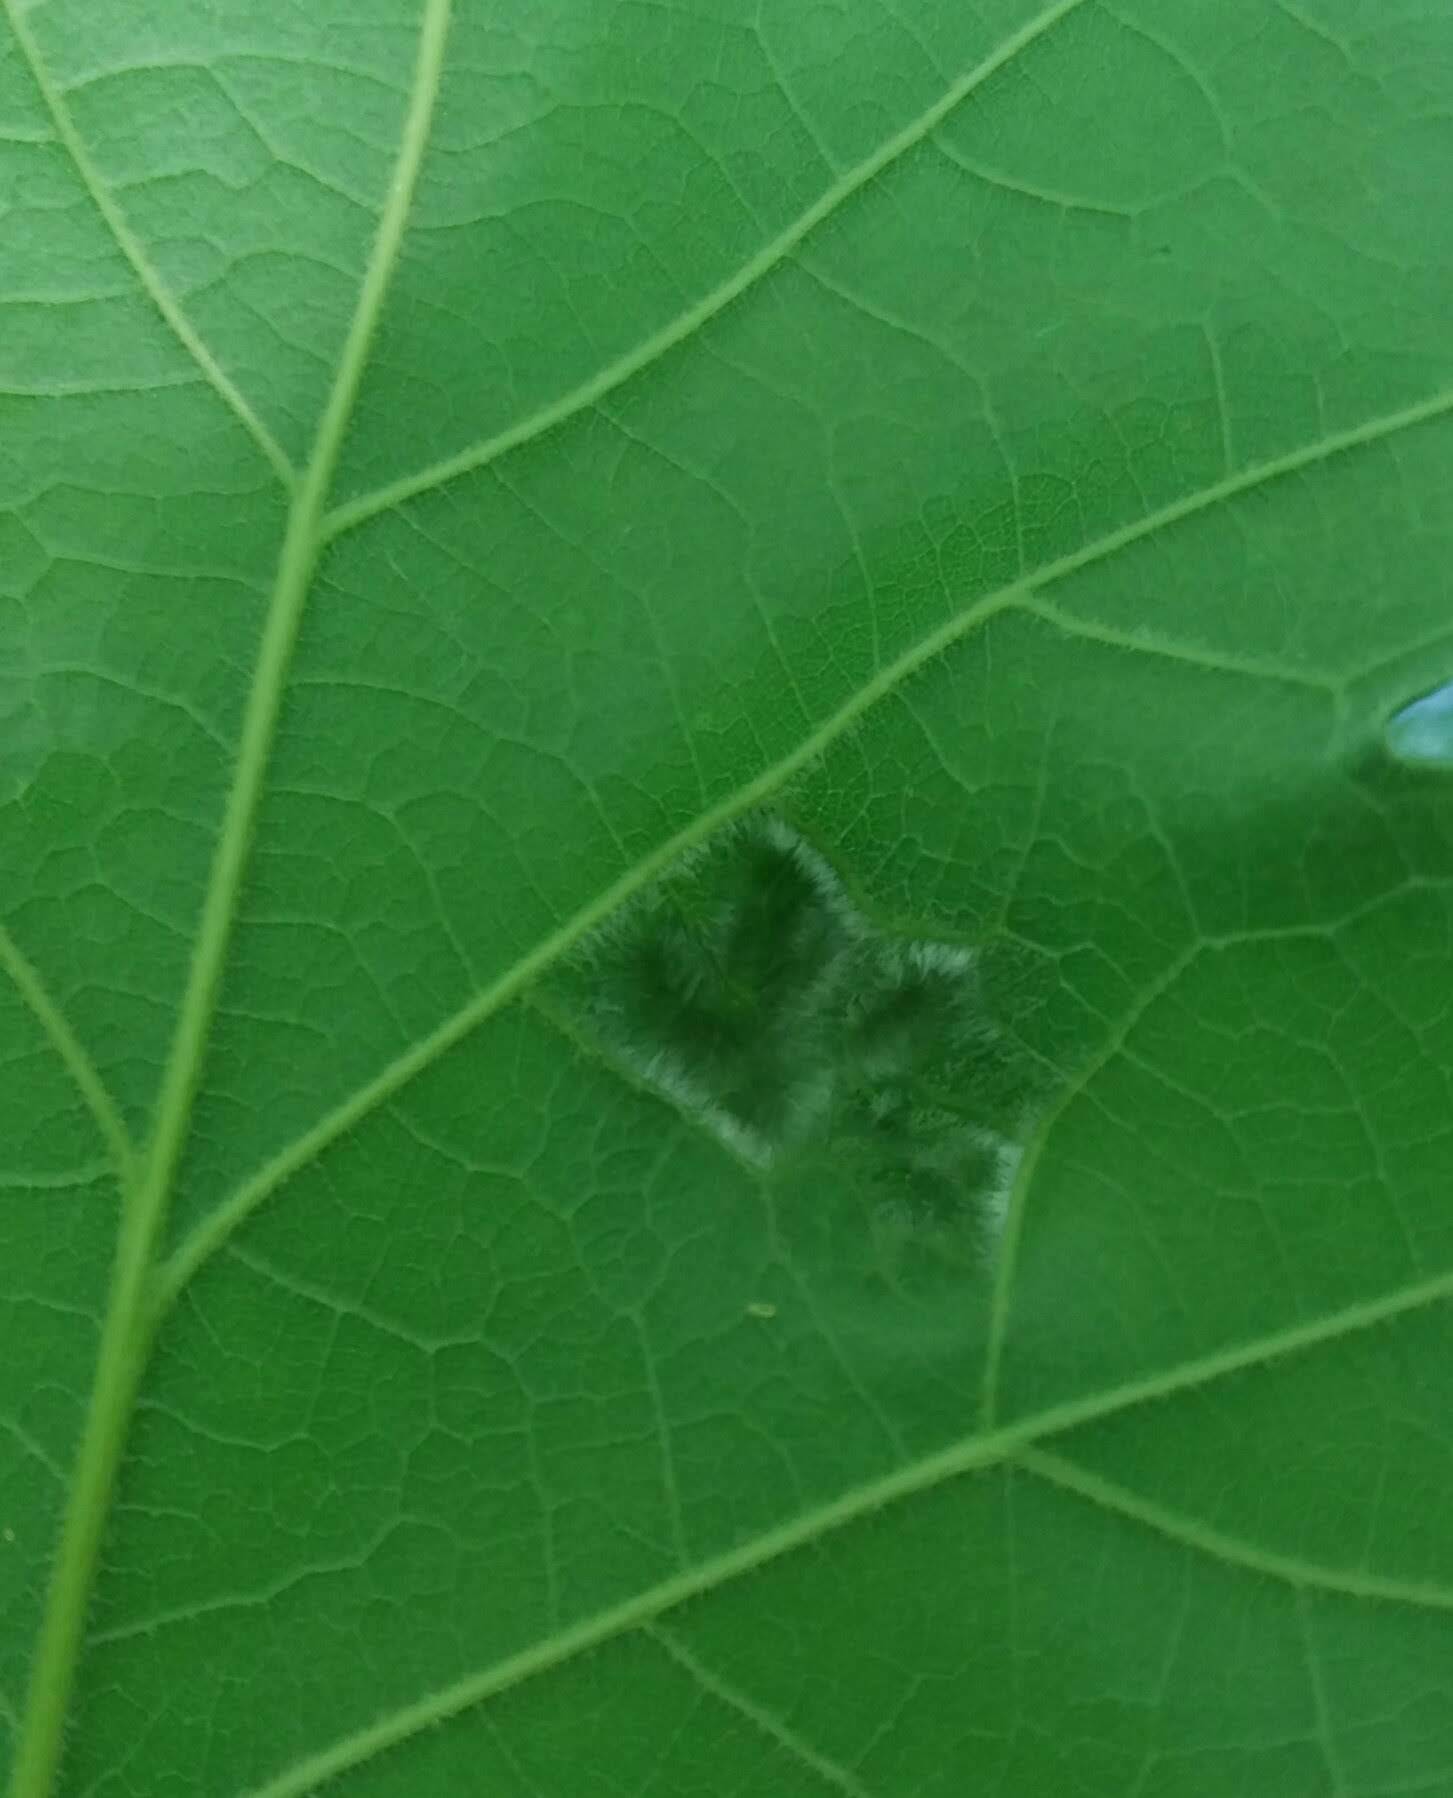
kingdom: Animalia
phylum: Arthropoda
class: Arachnida
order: Trombidiformes
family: Eriophyidae
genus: Aceria
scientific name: Aceria quercina
